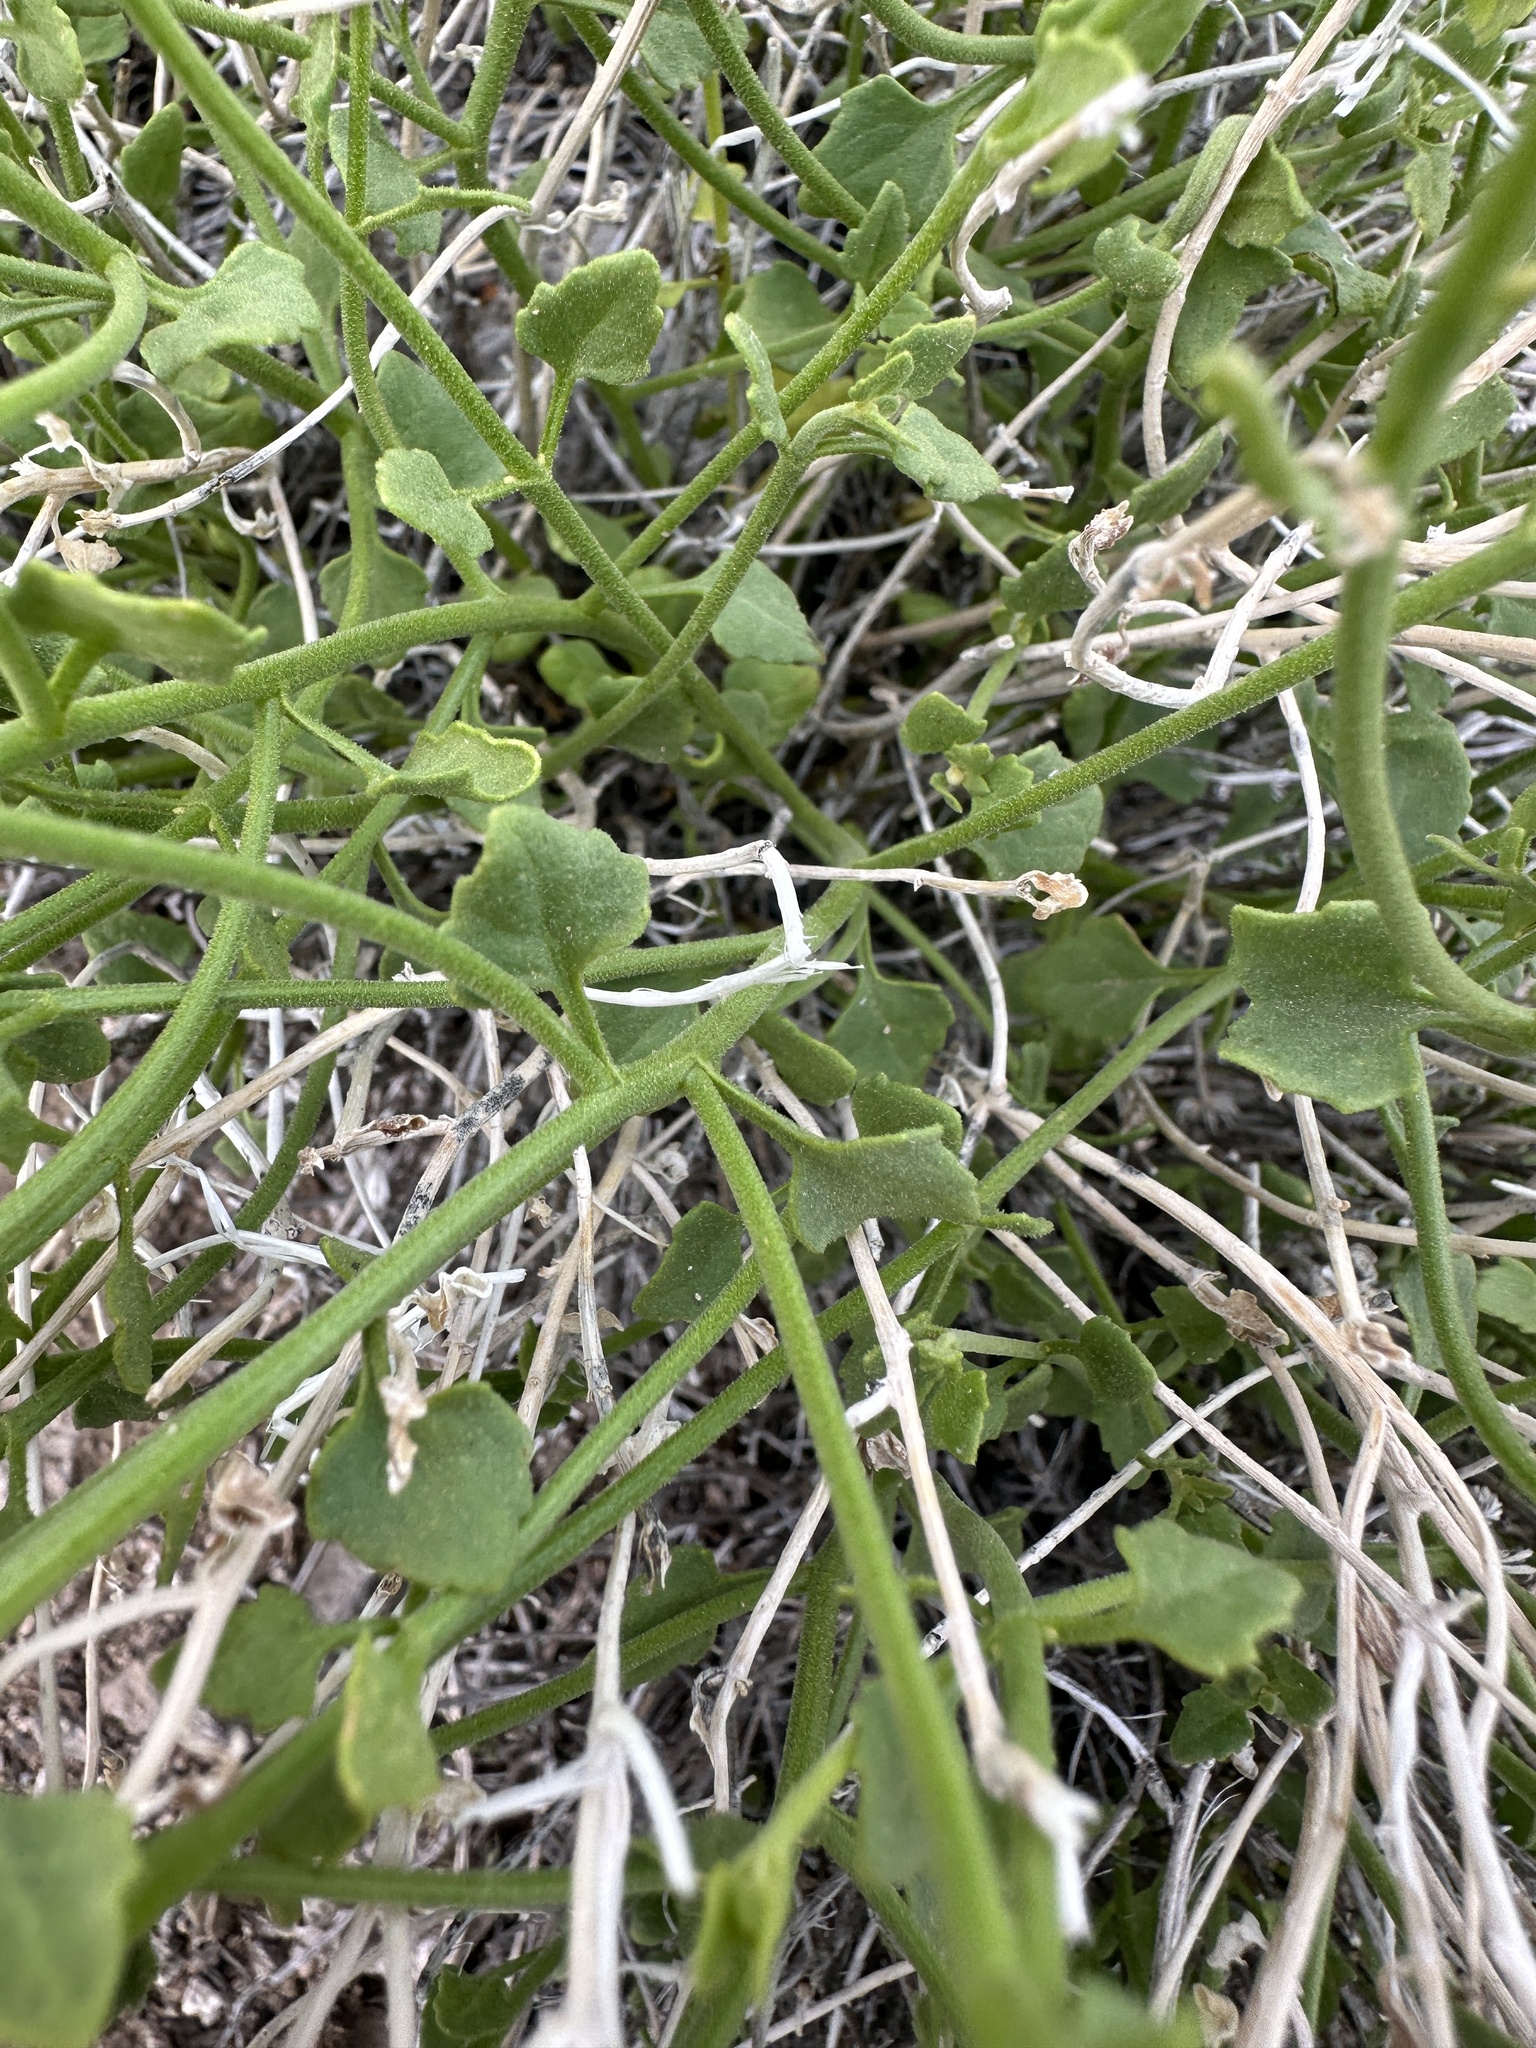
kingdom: Plantae
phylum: Tracheophyta
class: Magnoliopsida
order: Asterales
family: Asteraceae
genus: Laphamia
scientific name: Laphamia stansburyi
